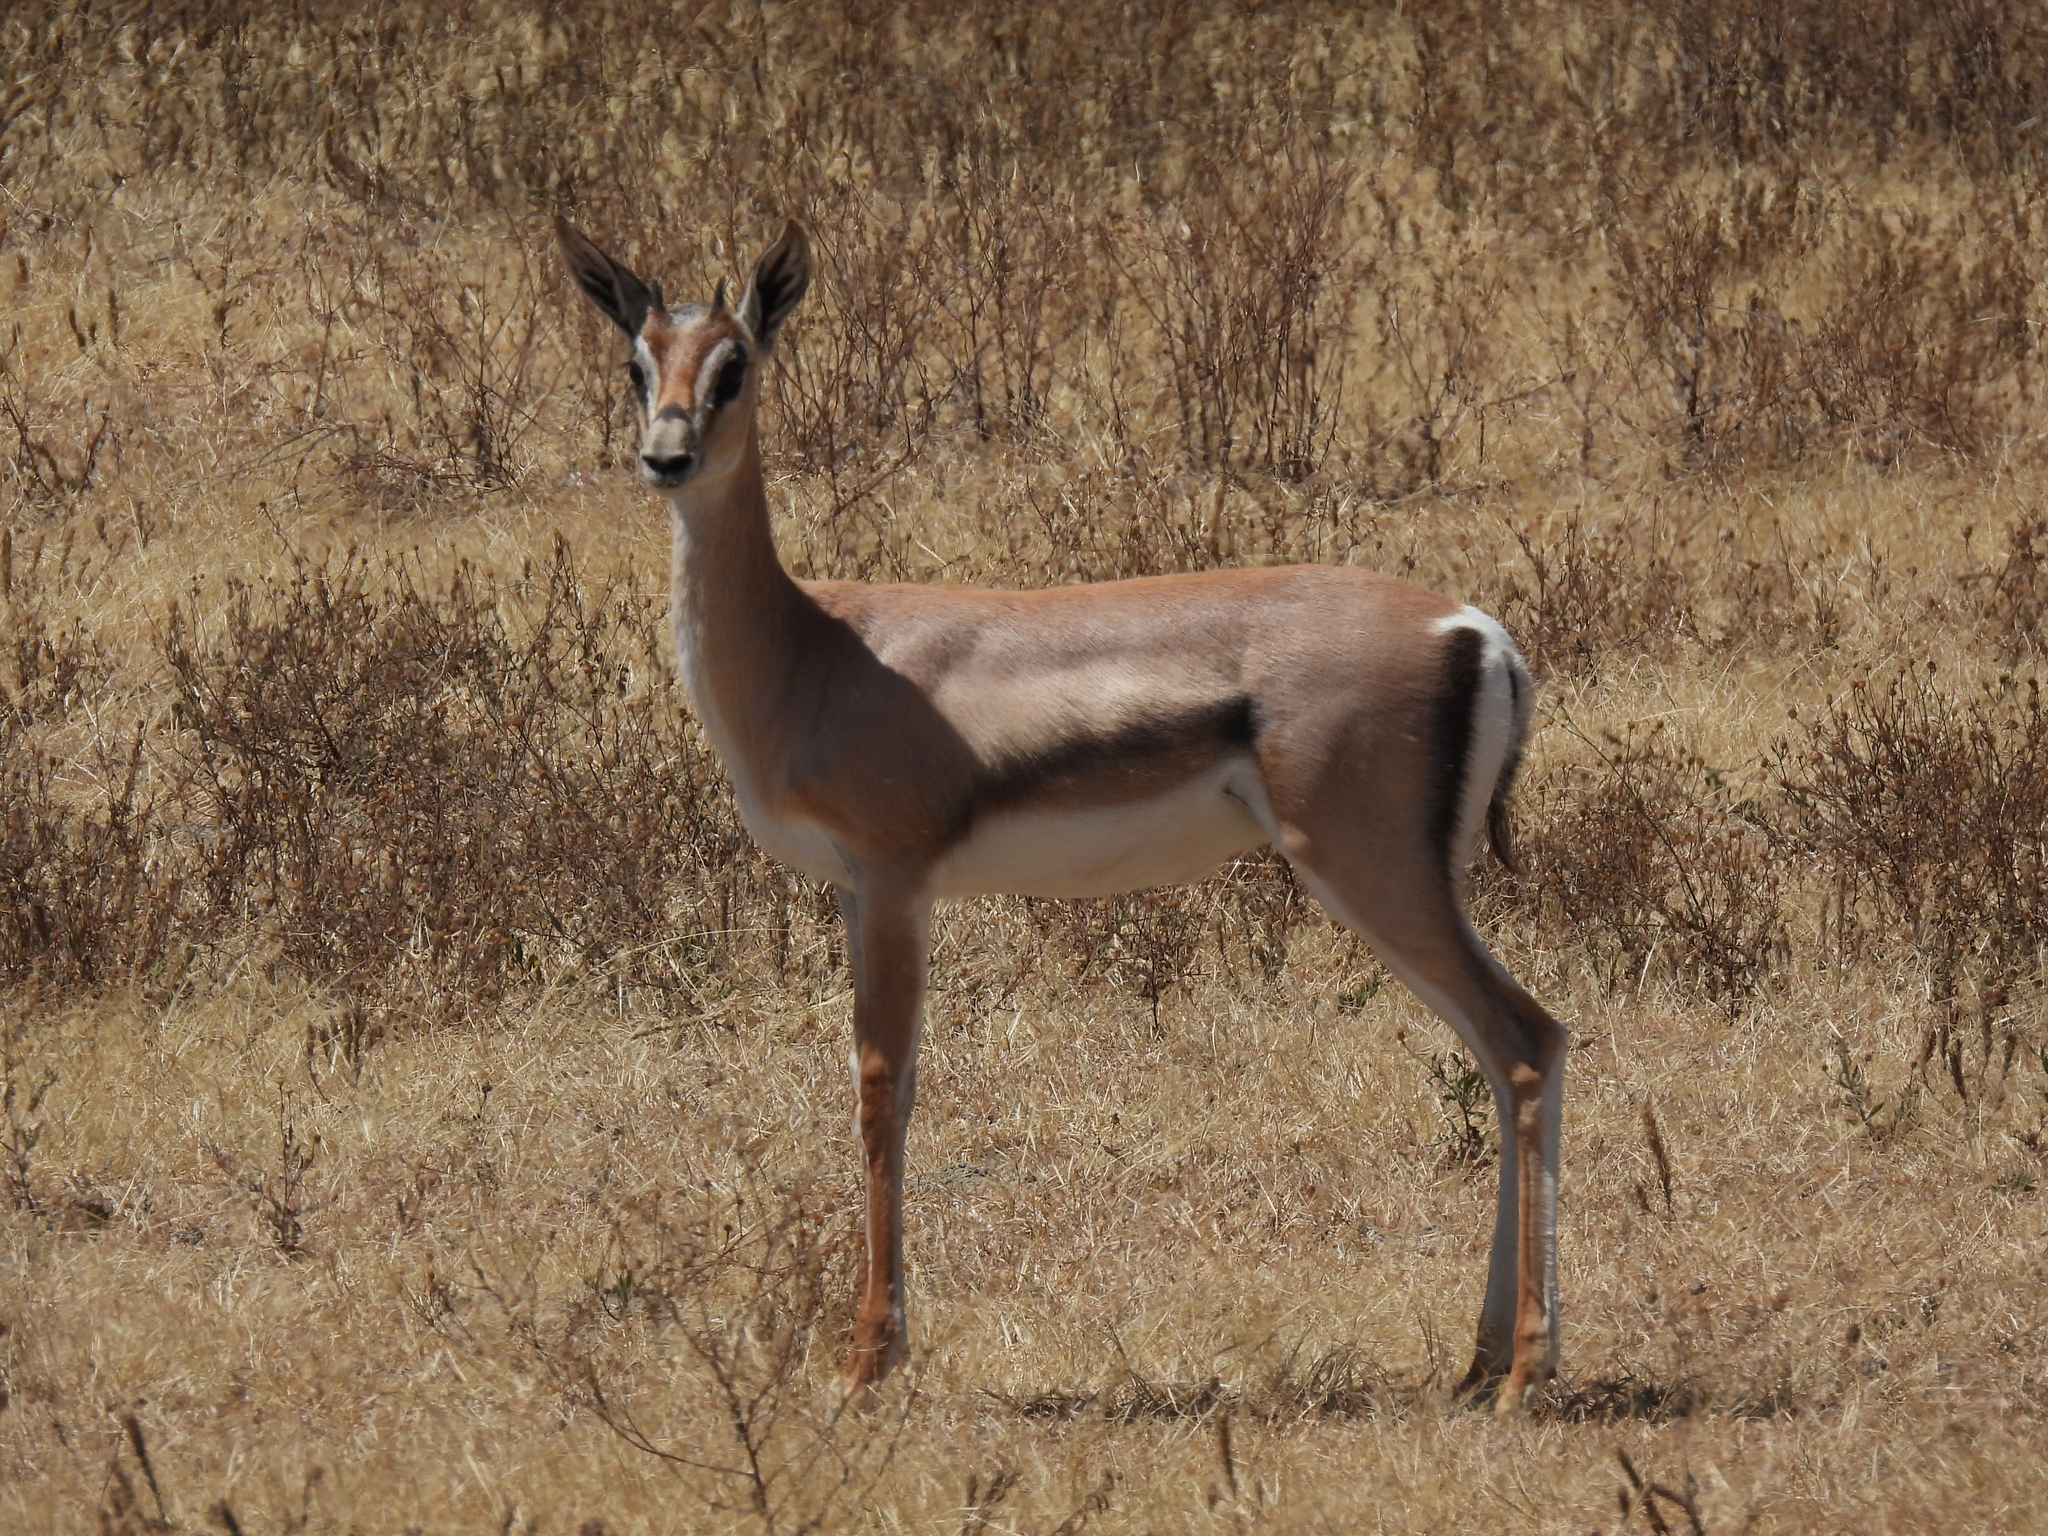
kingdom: Animalia
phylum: Chordata
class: Mammalia
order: Artiodactyla
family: Bovidae
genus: Nanger
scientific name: Nanger granti
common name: Grant's gazelle
